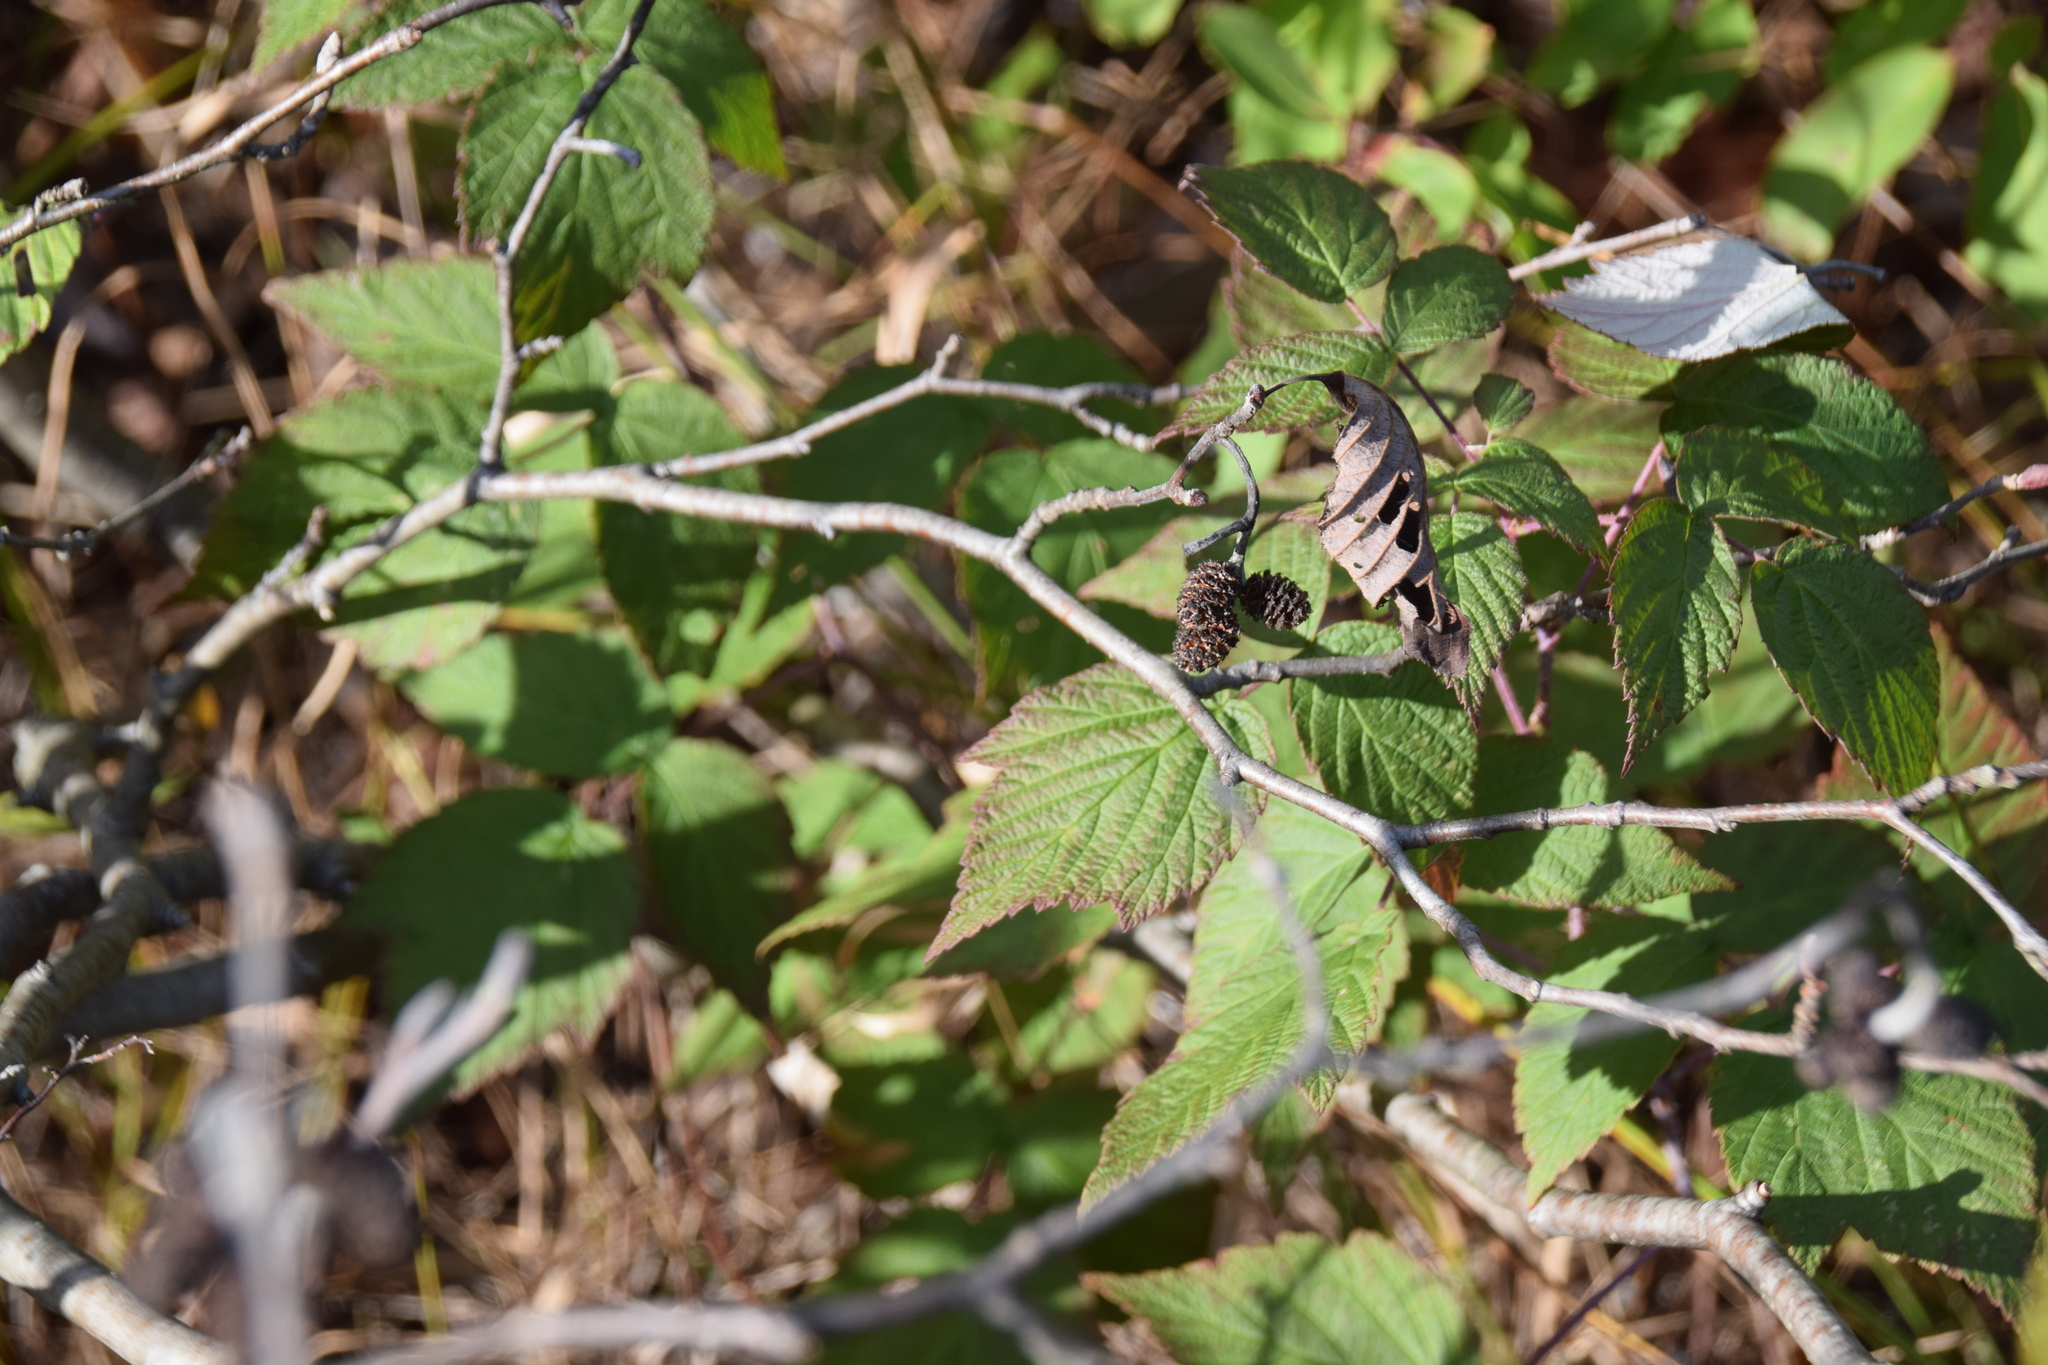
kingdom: Plantae
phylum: Tracheophyta
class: Magnoliopsida
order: Fagales
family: Betulaceae
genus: Alnus
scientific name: Alnus incana
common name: Grey alder
